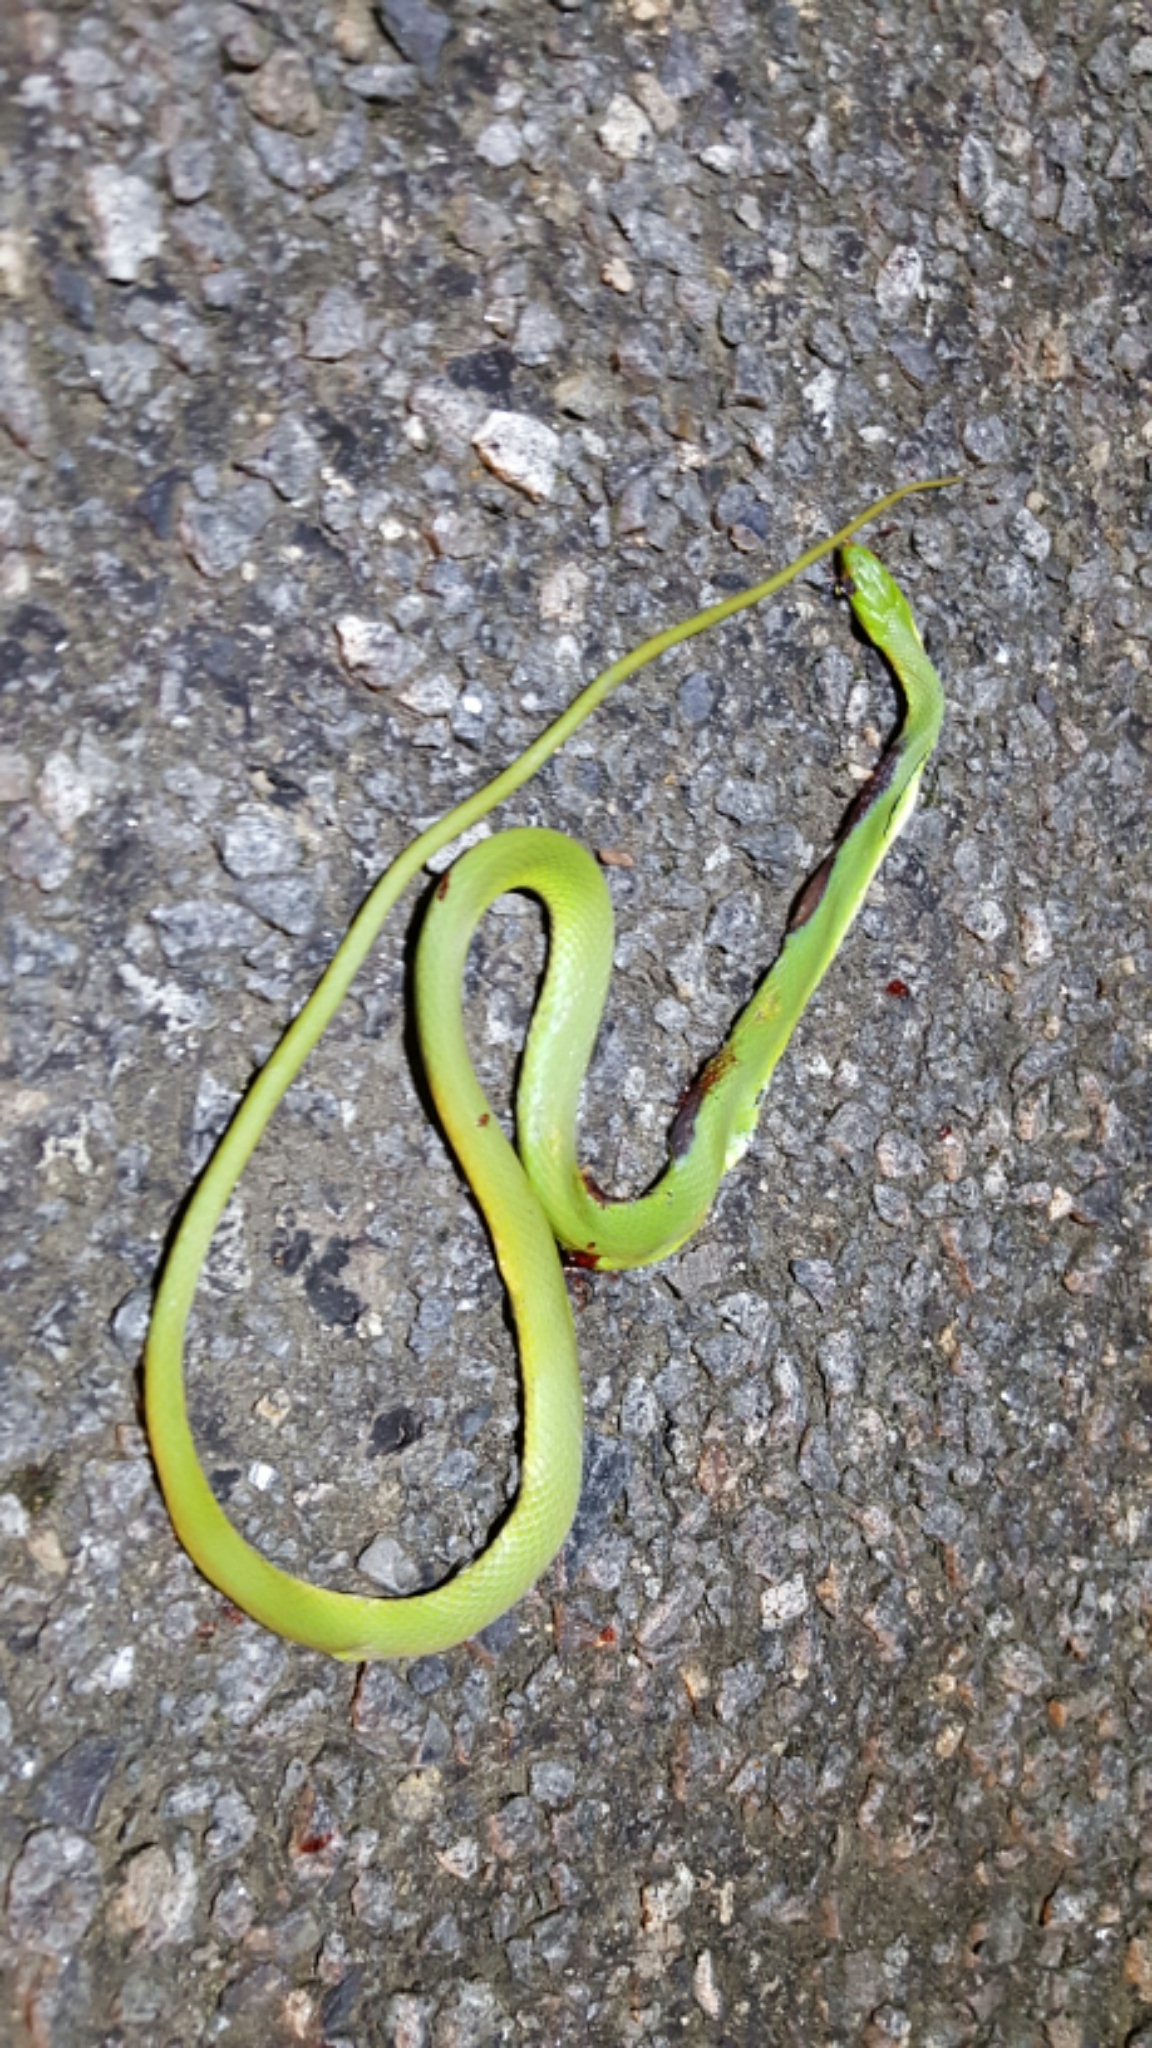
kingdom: Animalia
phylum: Chordata
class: Squamata
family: Colubridae
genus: Opheodrys
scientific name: Opheodrys aestivus
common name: Rough greensnake
